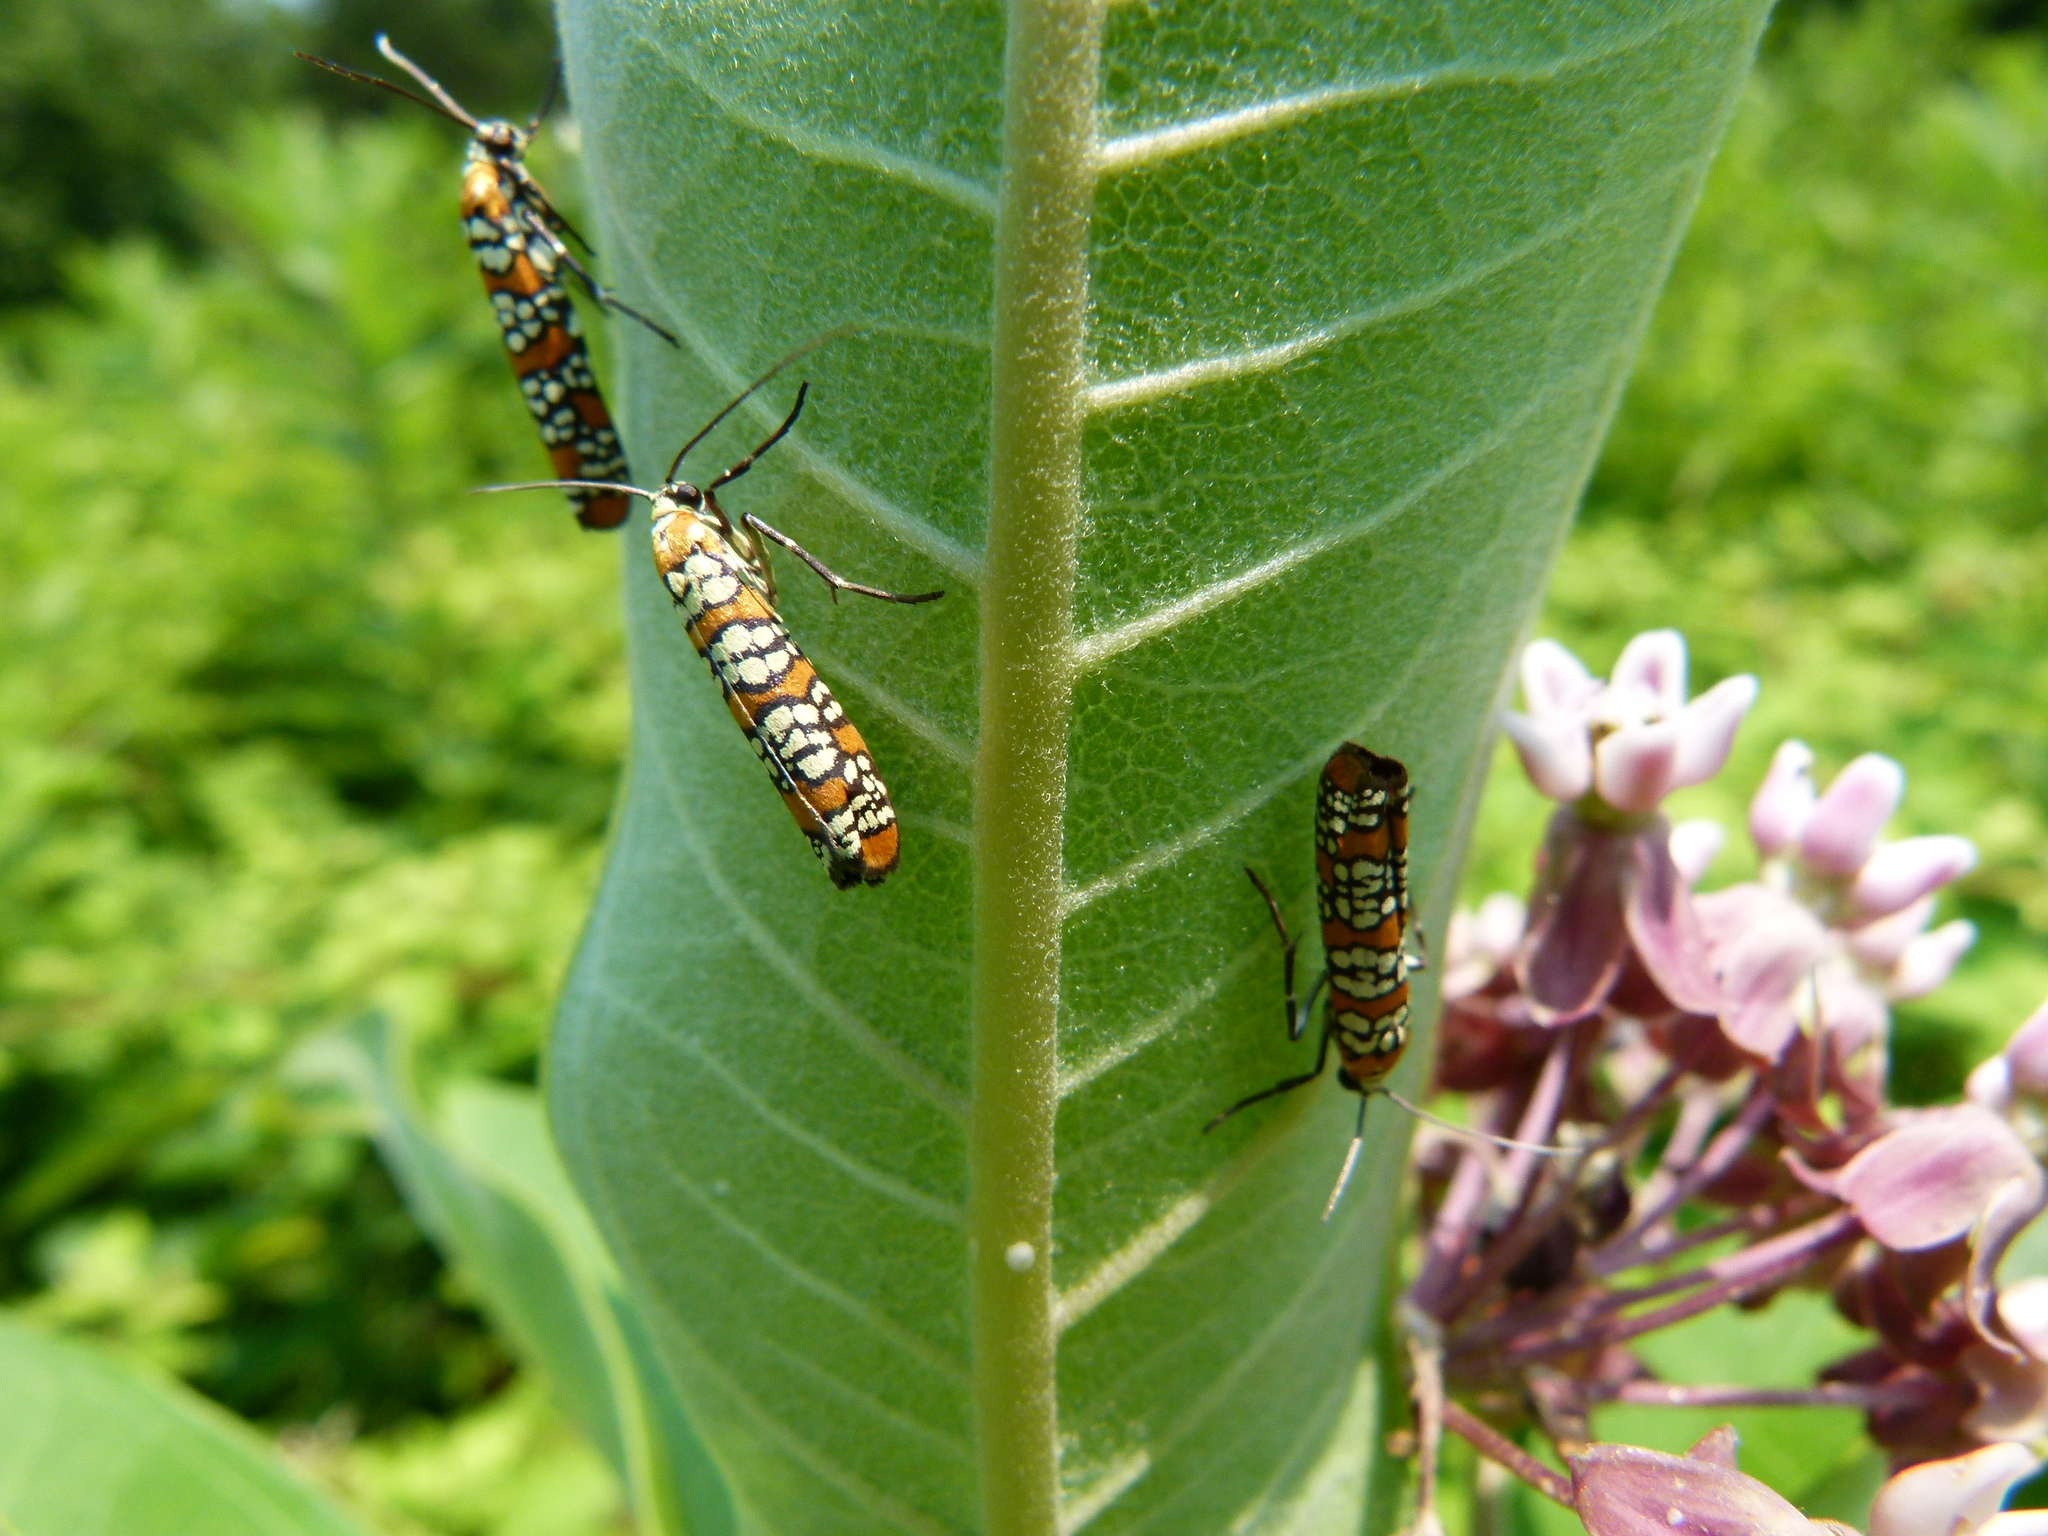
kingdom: Animalia
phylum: Arthropoda
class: Insecta
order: Lepidoptera
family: Attevidae
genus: Atteva
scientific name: Atteva punctella
